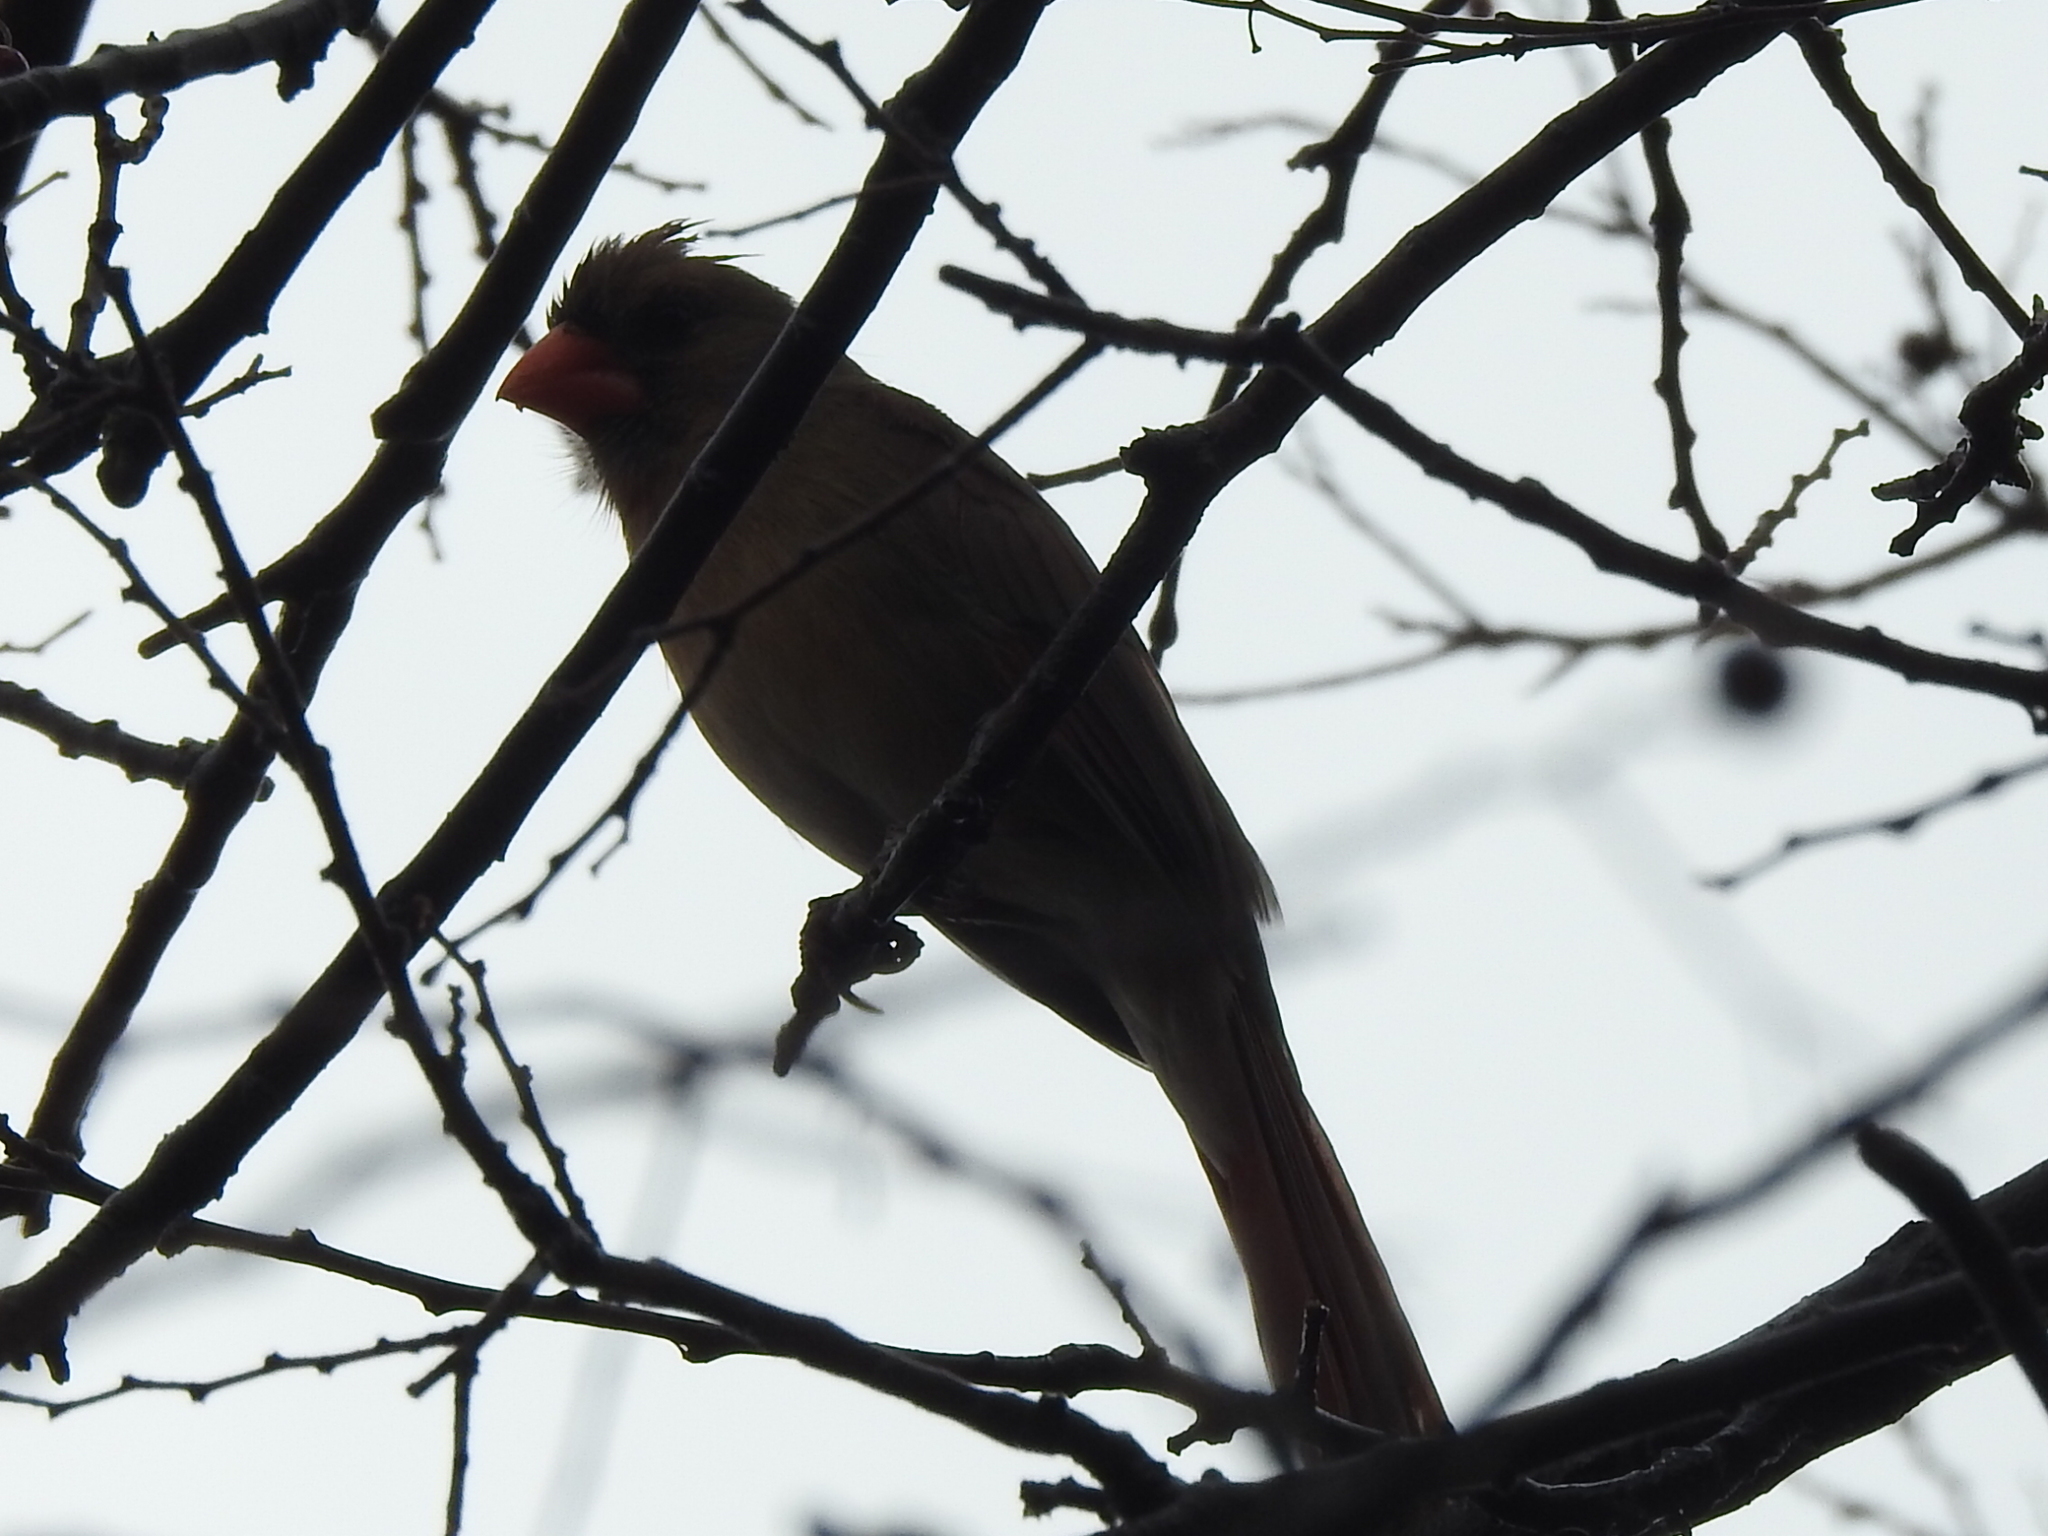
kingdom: Animalia
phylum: Chordata
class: Aves
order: Passeriformes
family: Cardinalidae
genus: Cardinalis
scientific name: Cardinalis cardinalis
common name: Northern cardinal
